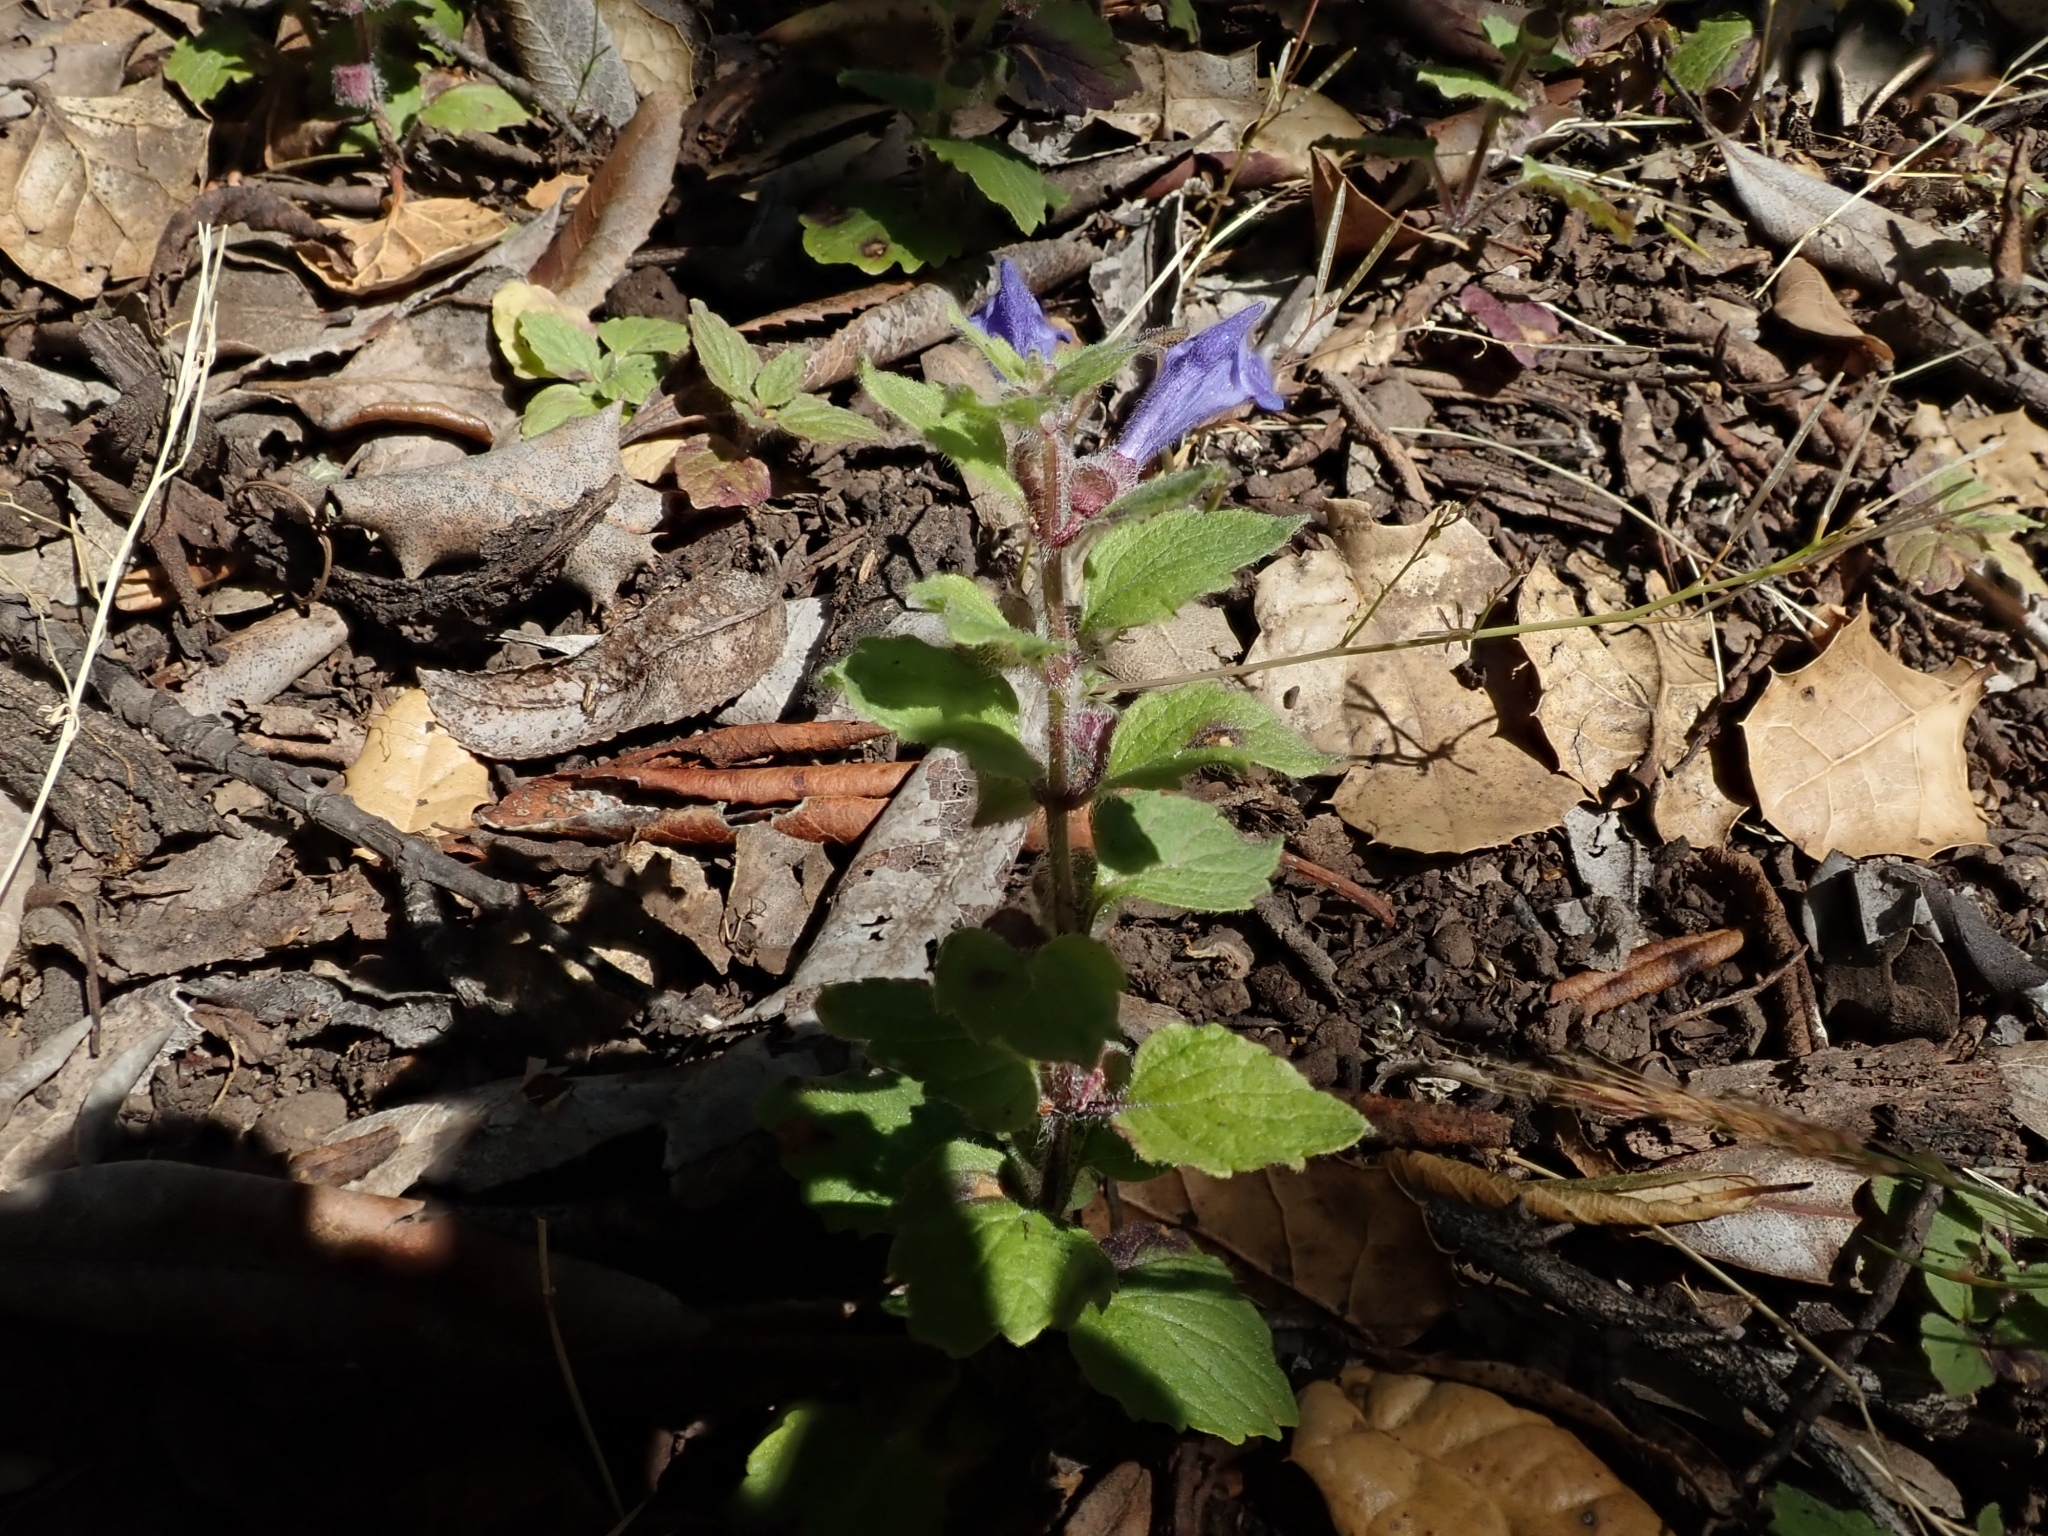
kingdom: Plantae
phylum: Tracheophyta
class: Magnoliopsida
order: Lamiales
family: Lamiaceae
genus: Scutellaria
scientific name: Scutellaria tuberosa
